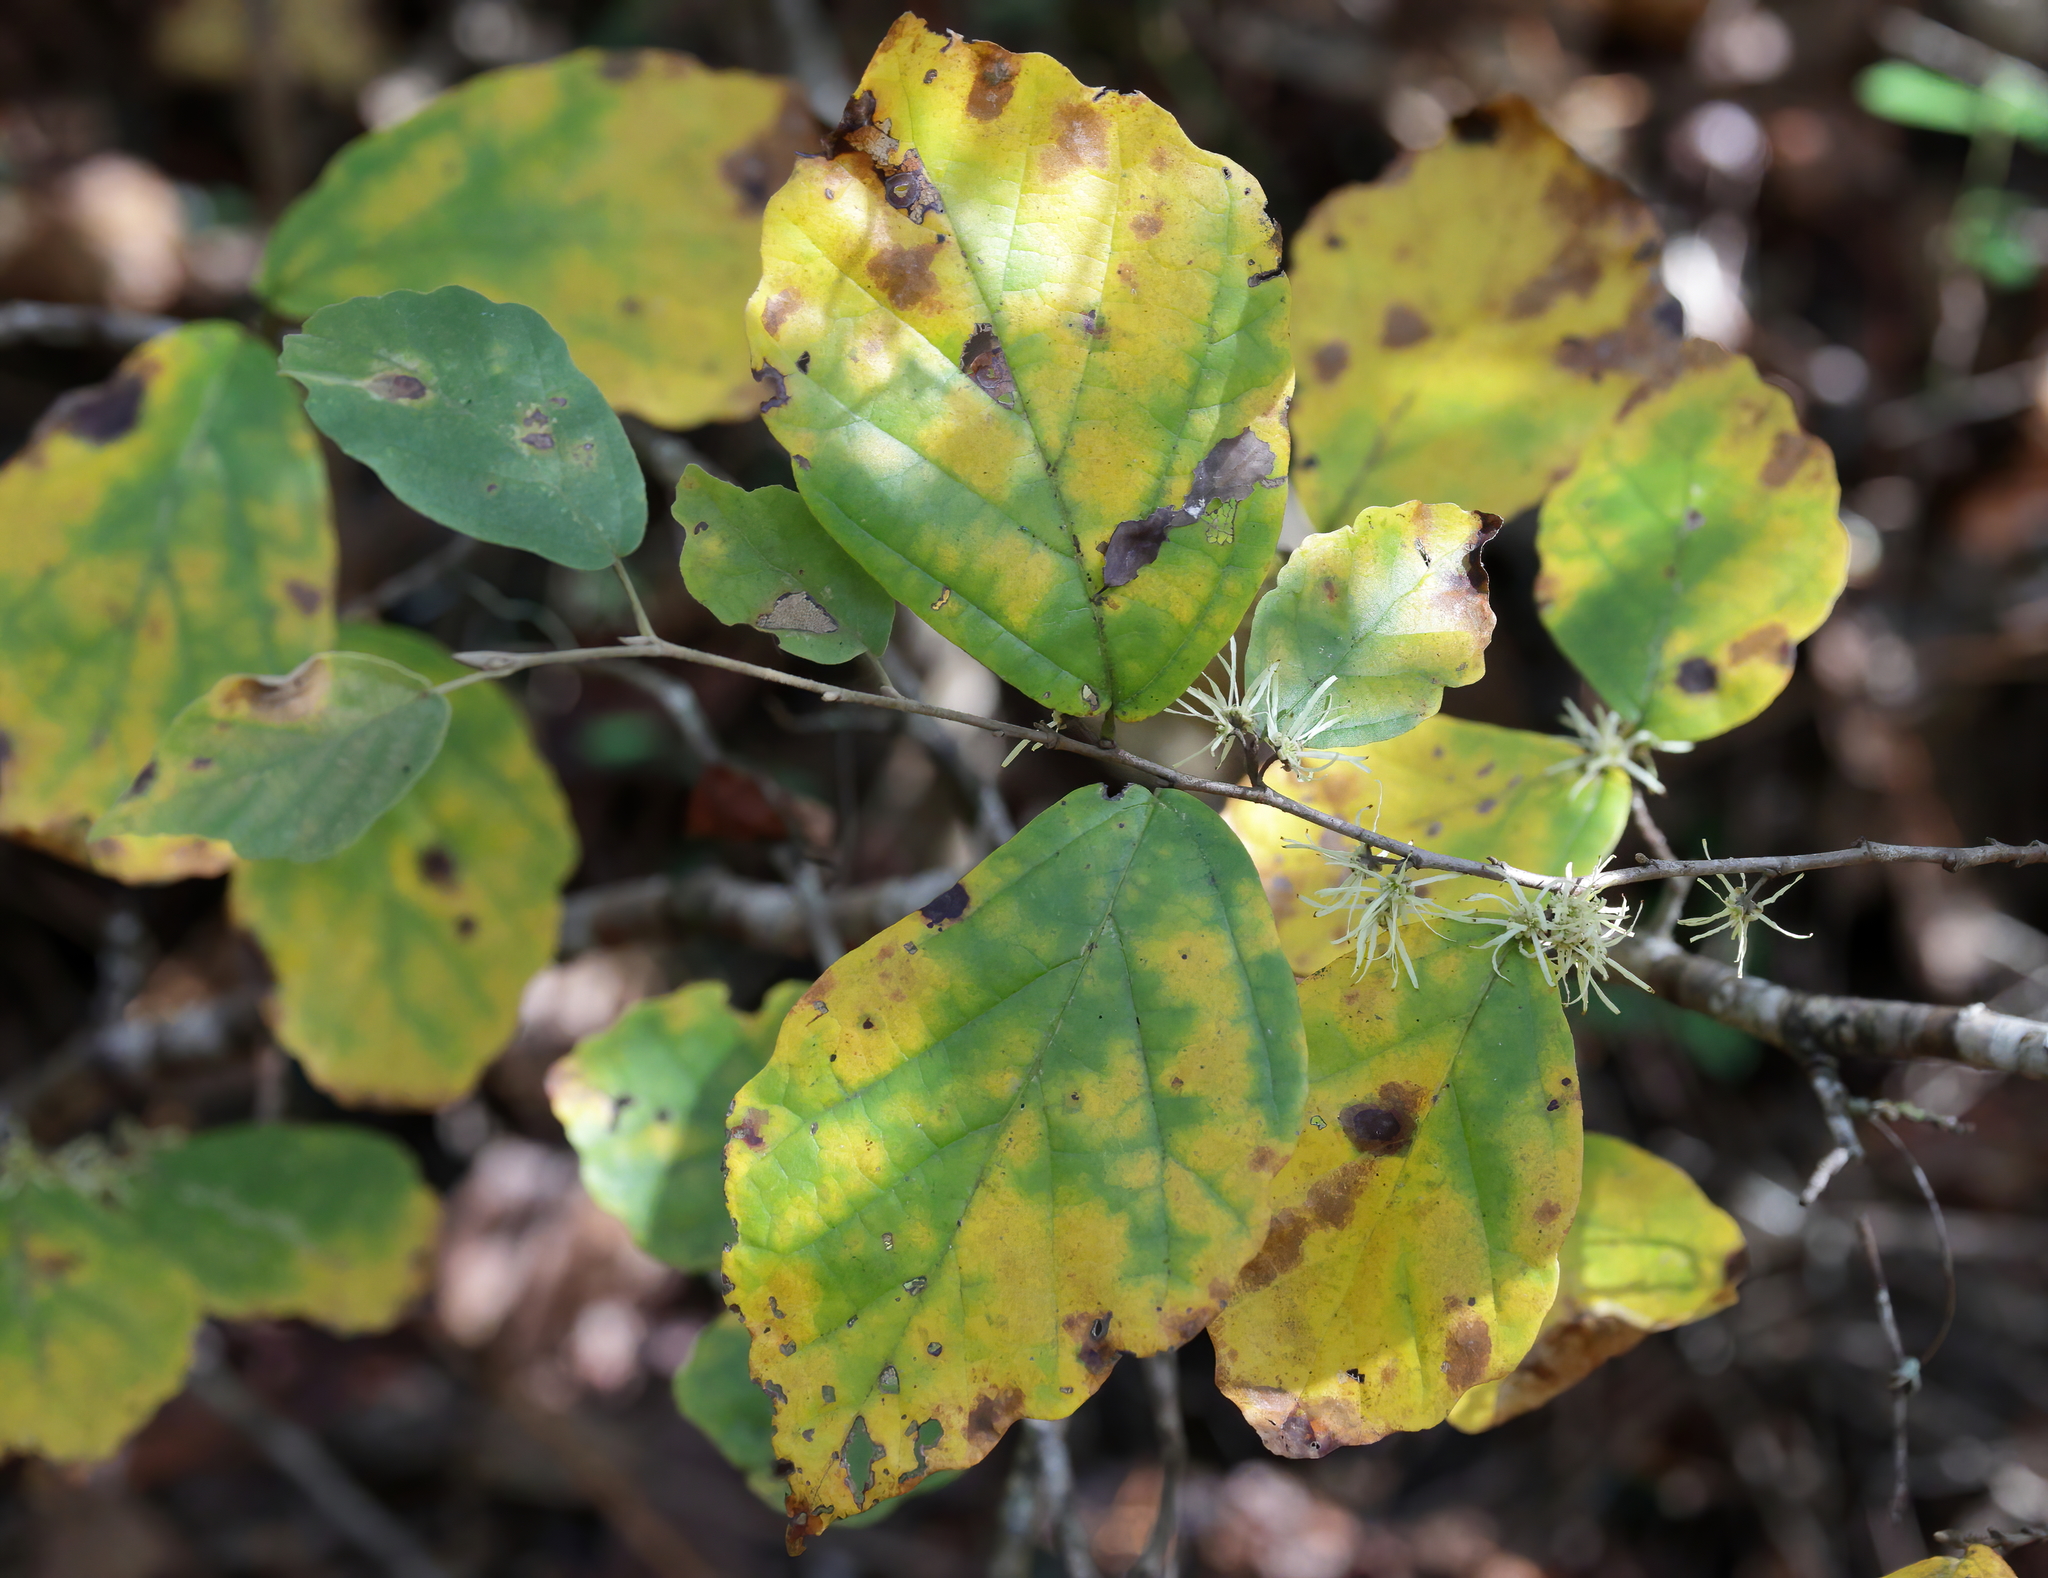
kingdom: Plantae
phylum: Tracheophyta
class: Magnoliopsida
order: Saxifragales
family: Hamamelidaceae
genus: Hamamelis
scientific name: Hamamelis virginiana
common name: Witch-hazel
